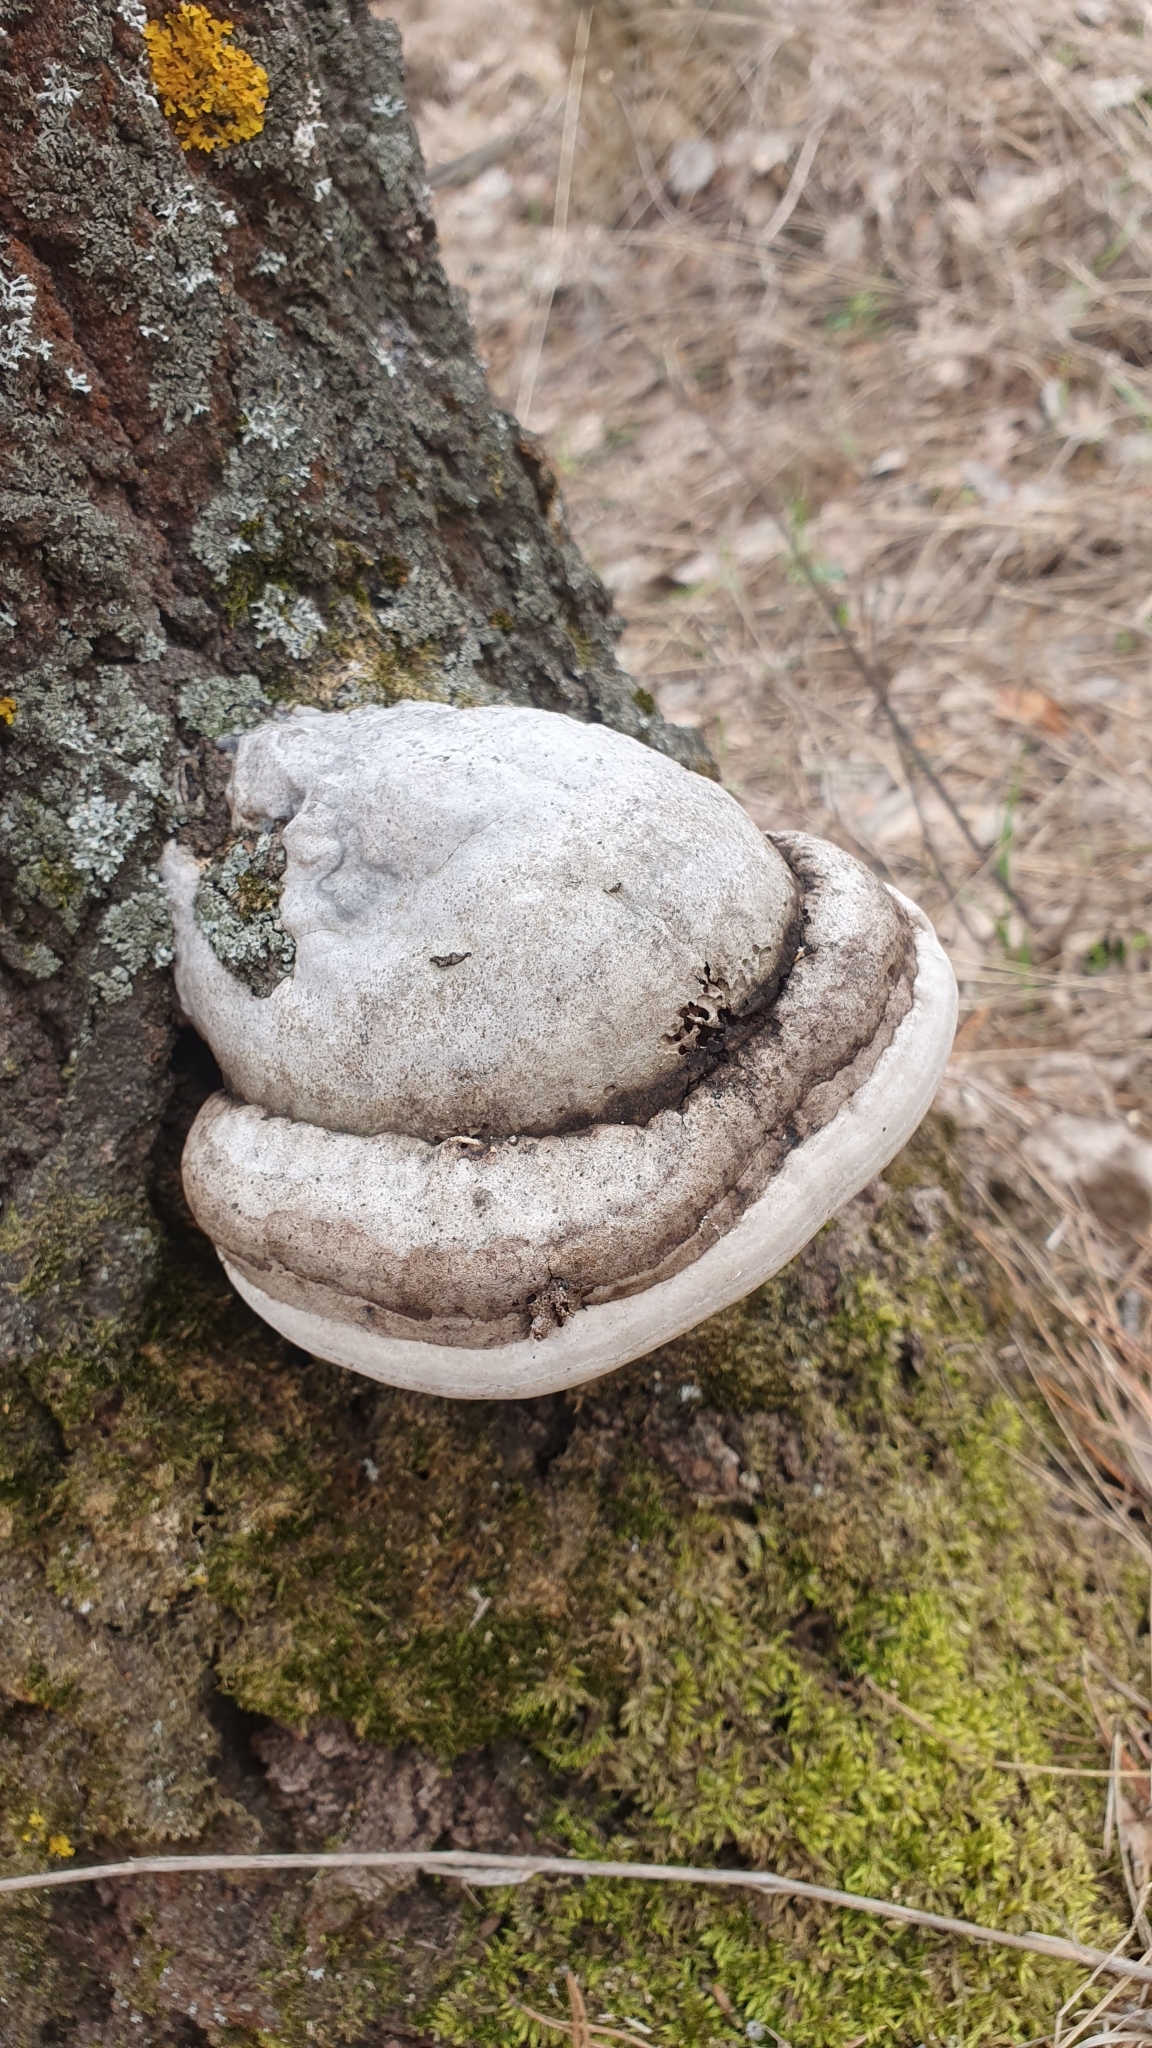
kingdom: Fungi
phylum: Basidiomycota
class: Agaricomycetes
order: Polyporales
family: Polyporaceae
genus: Fomes
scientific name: Fomes fomentarius
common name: Hoof fungus
